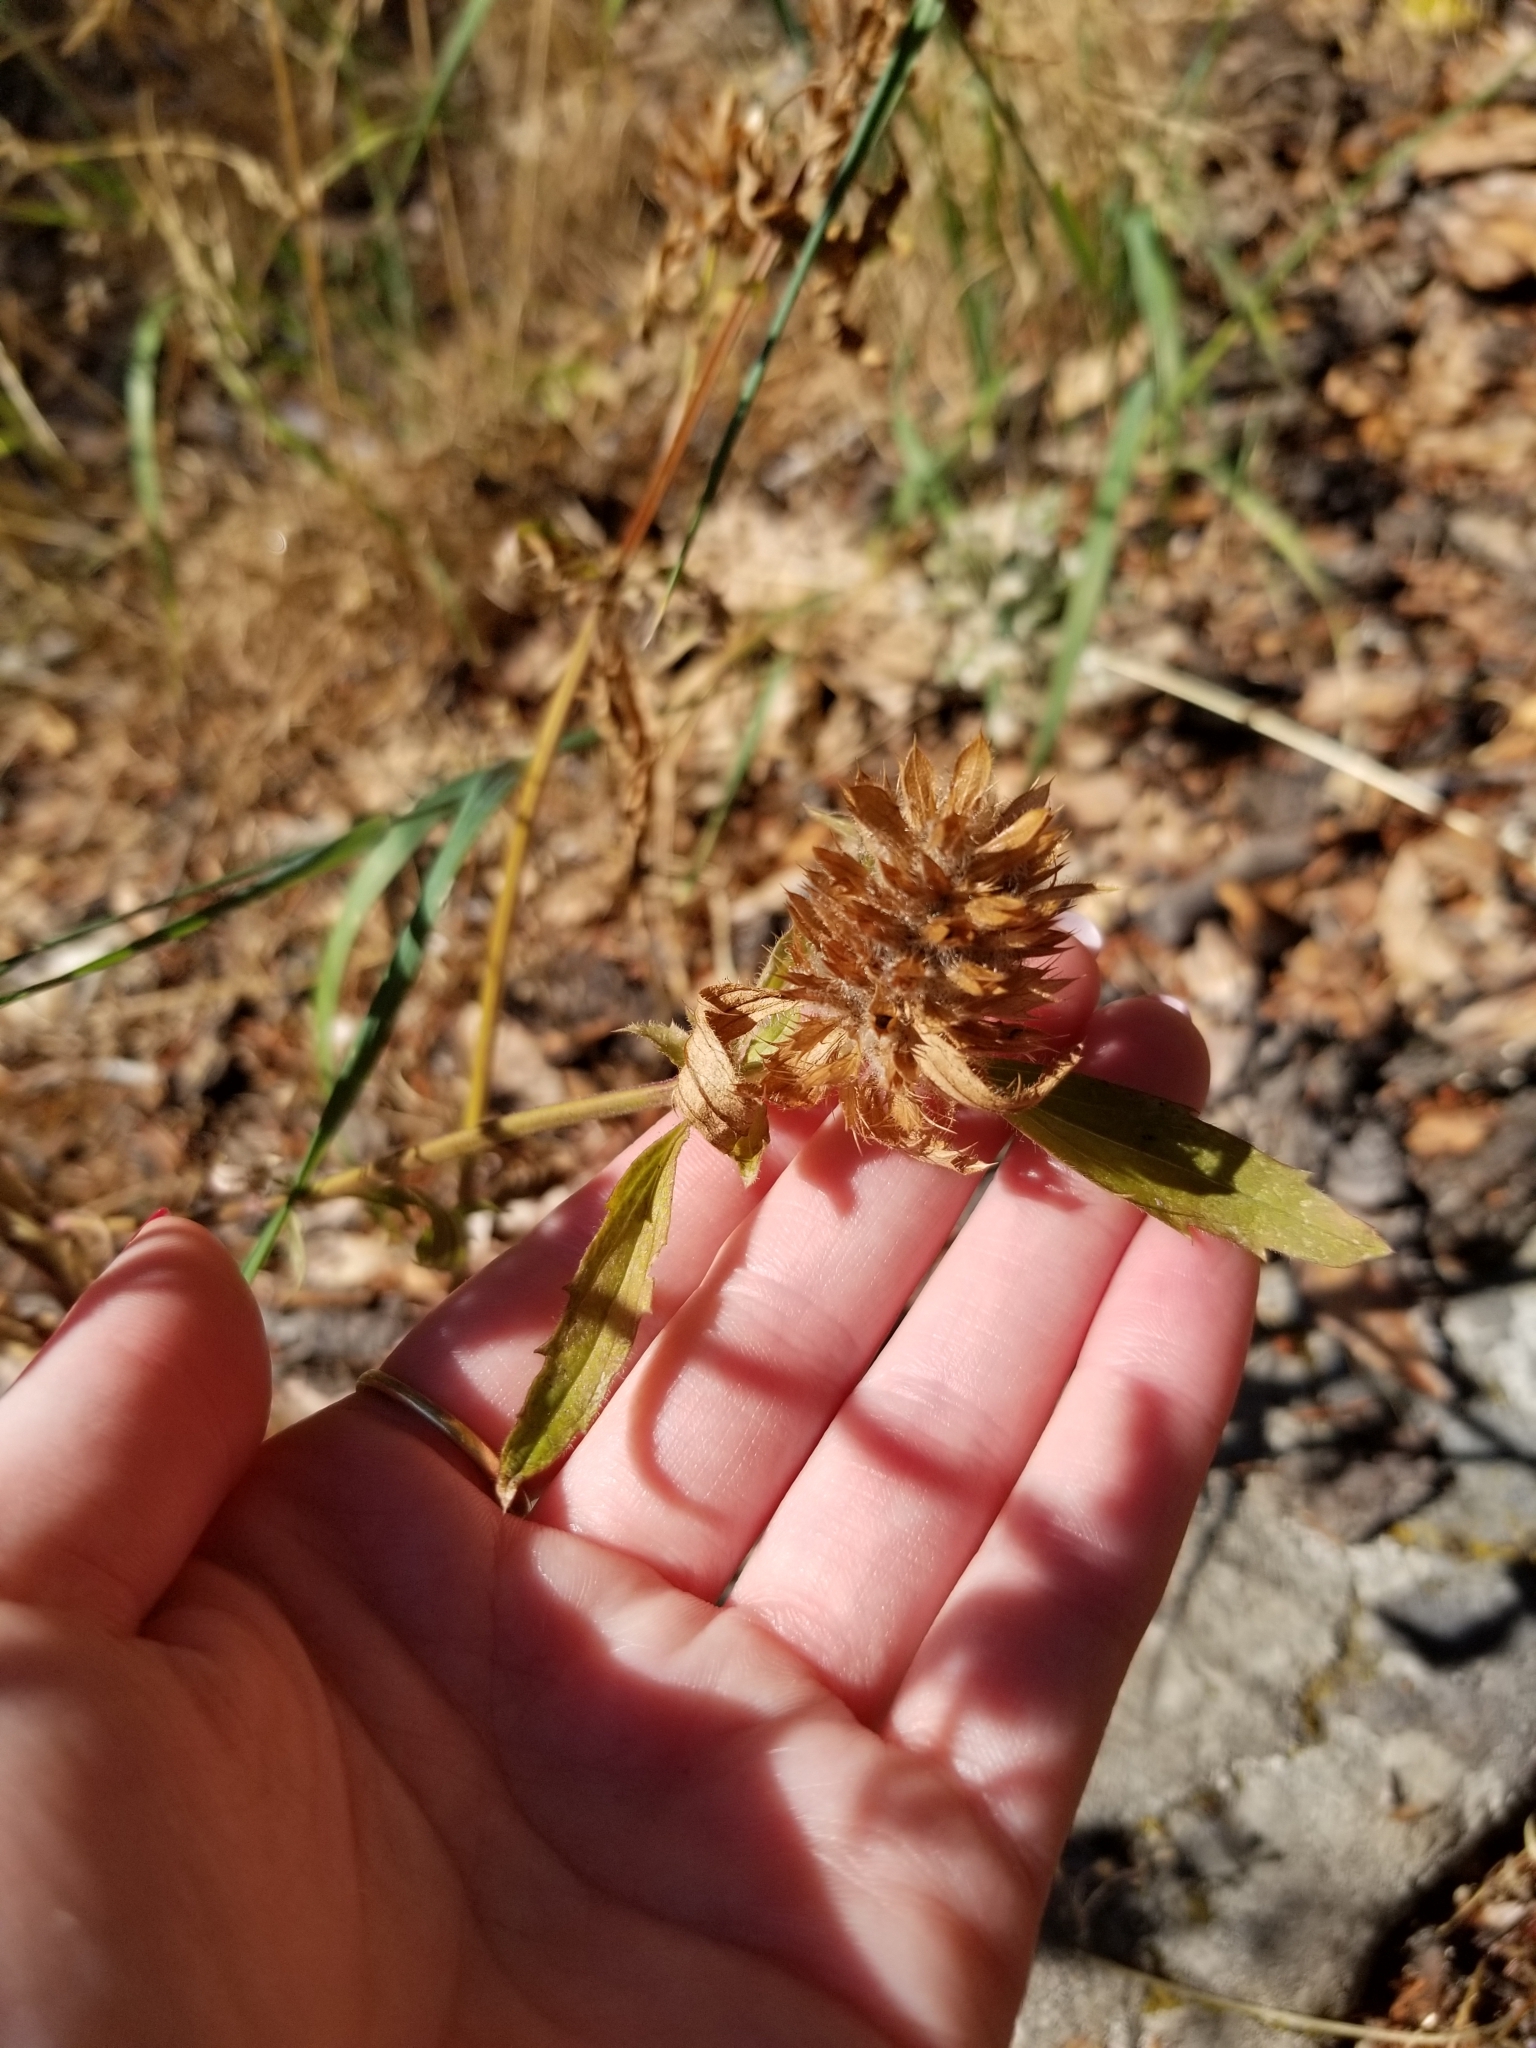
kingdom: Plantae
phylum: Tracheophyta
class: Magnoliopsida
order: Lamiales
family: Lamiaceae
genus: Dracocephalum
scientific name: Dracocephalum parviflorum
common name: American dragonhead
